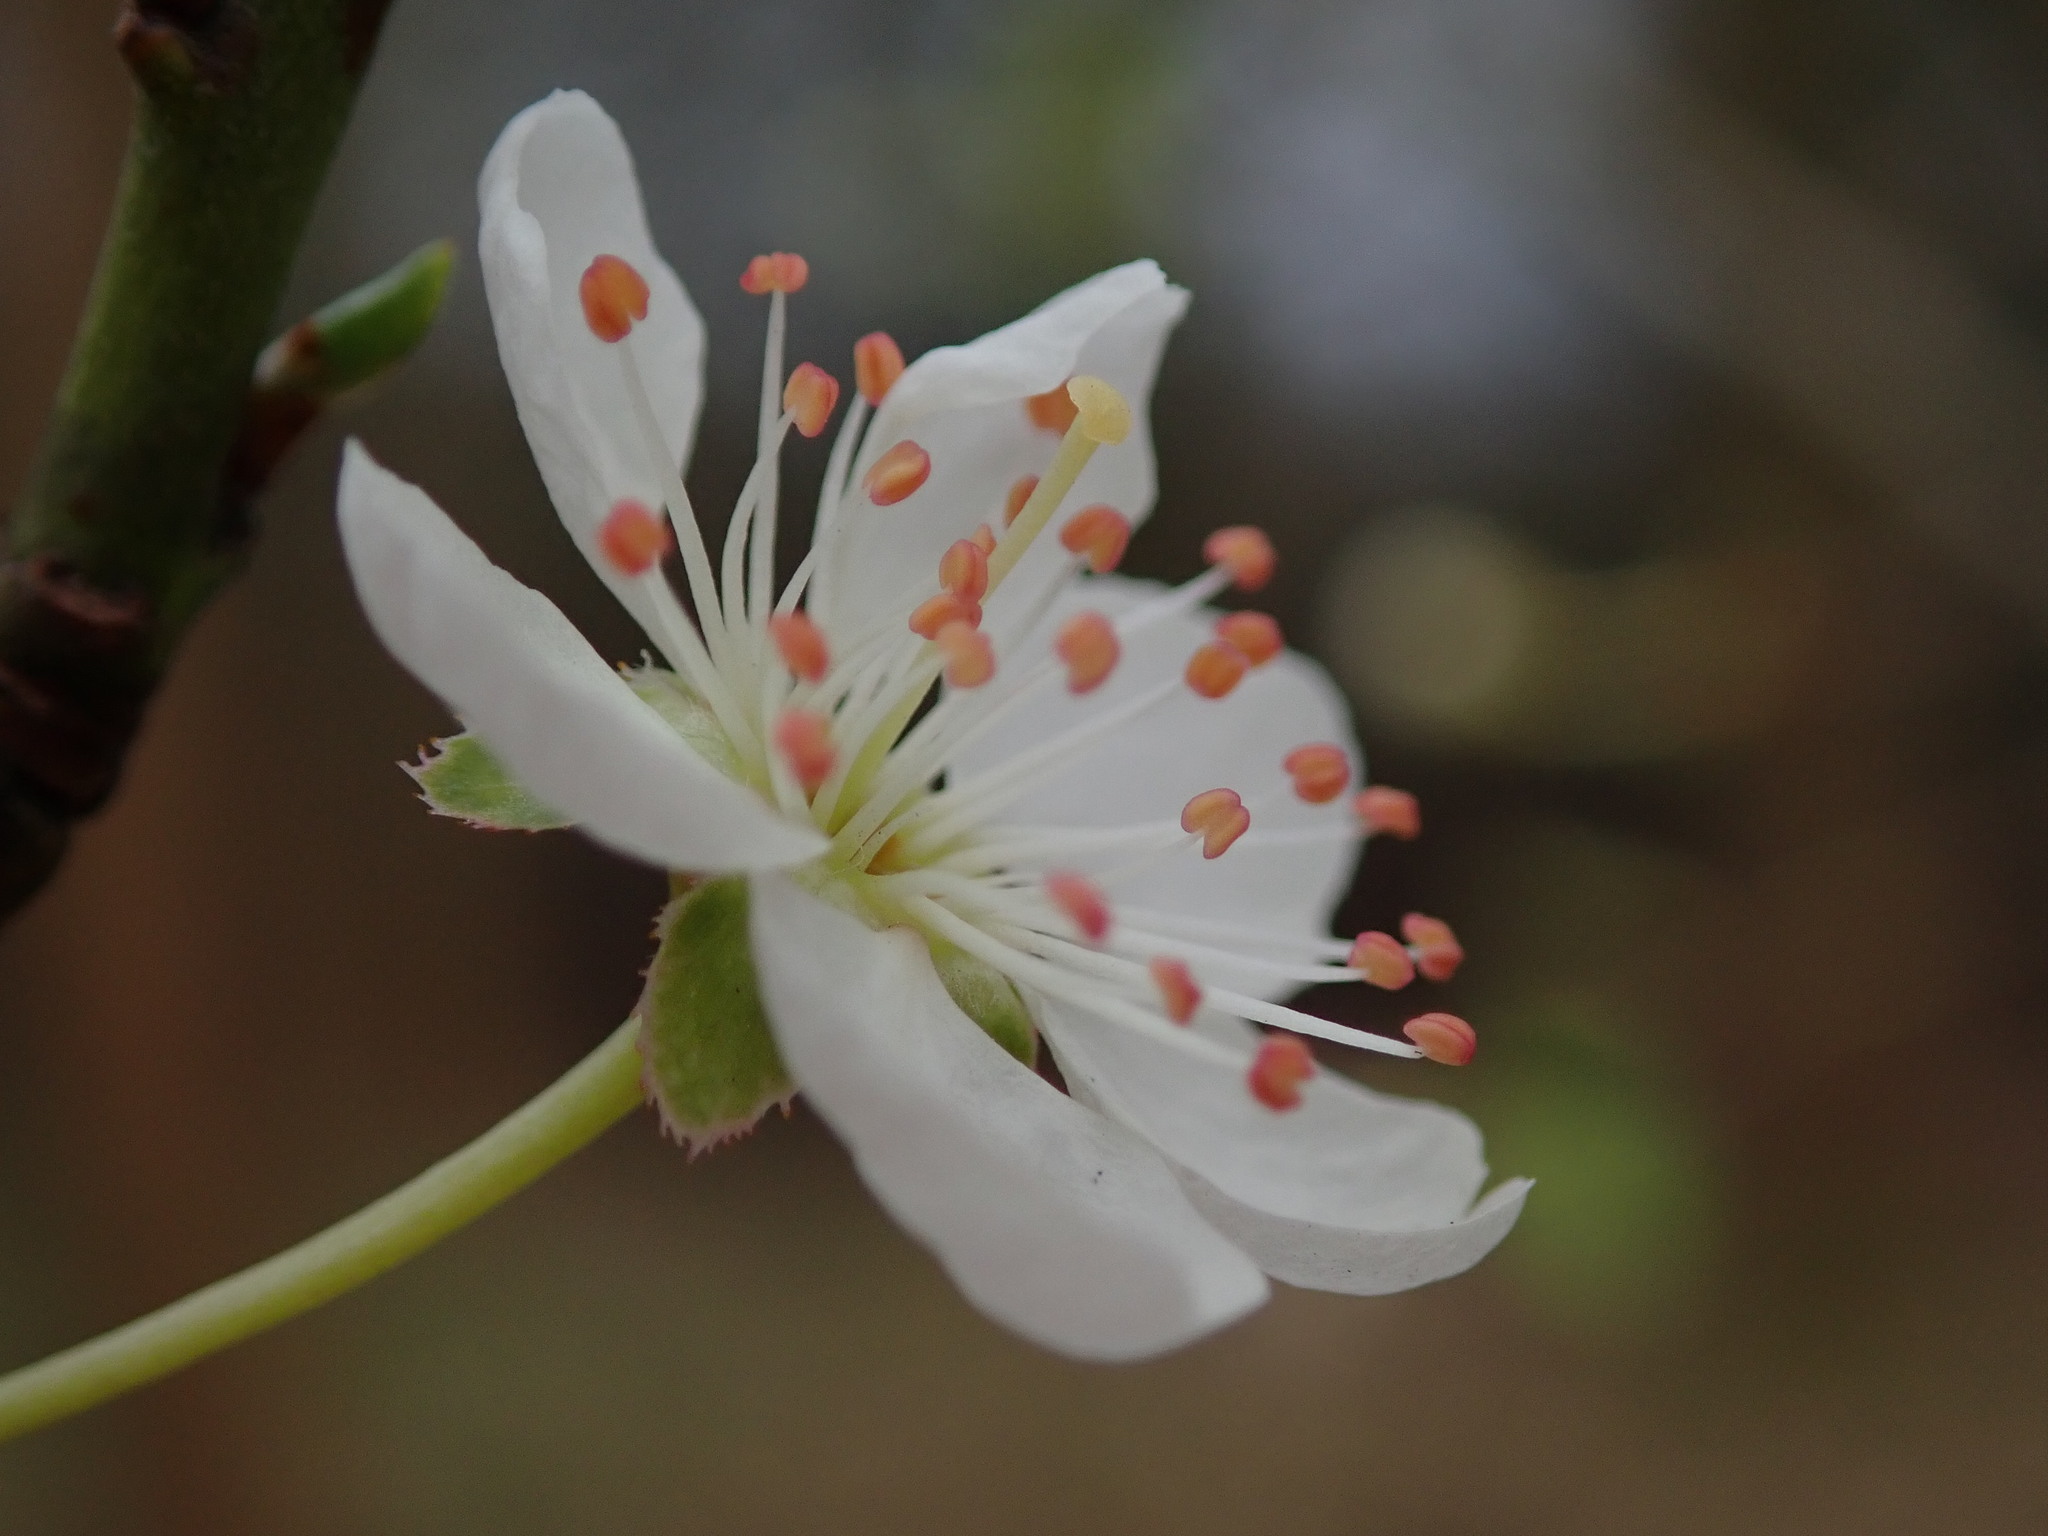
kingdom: Plantae
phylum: Tracheophyta
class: Magnoliopsida
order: Rosales
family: Rosaceae
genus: Prunus
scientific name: Prunus cerasifera
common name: Cherry plum
